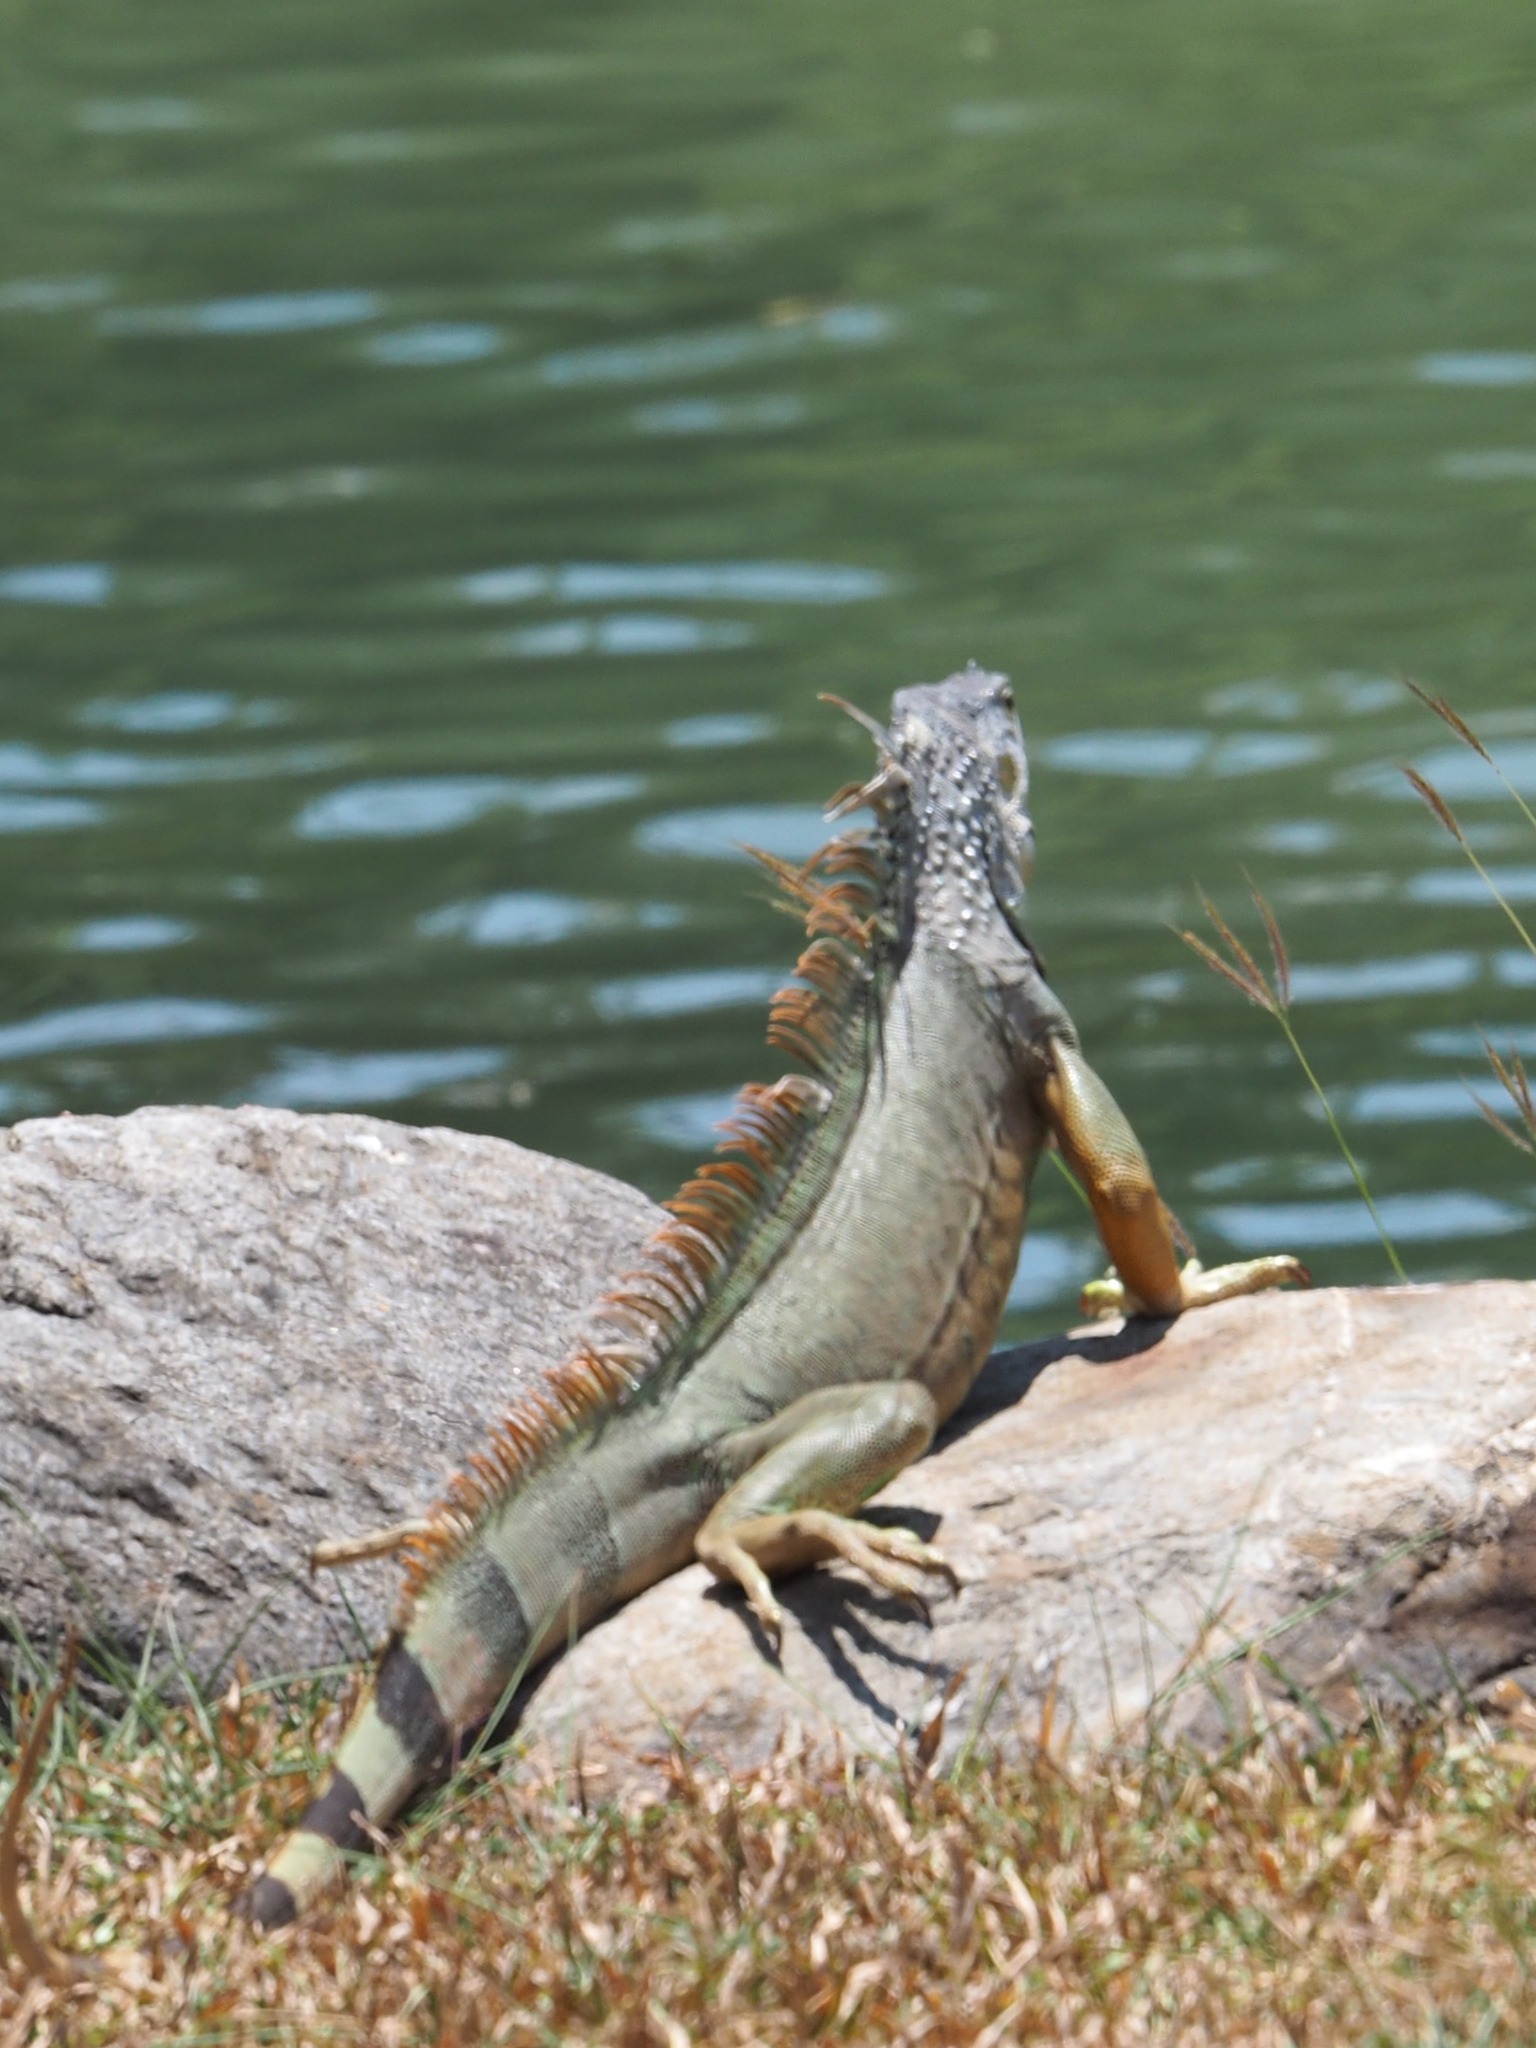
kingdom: Animalia
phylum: Chordata
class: Squamata
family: Iguanidae
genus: Iguana
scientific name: Iguana iguana
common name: Green iguana
